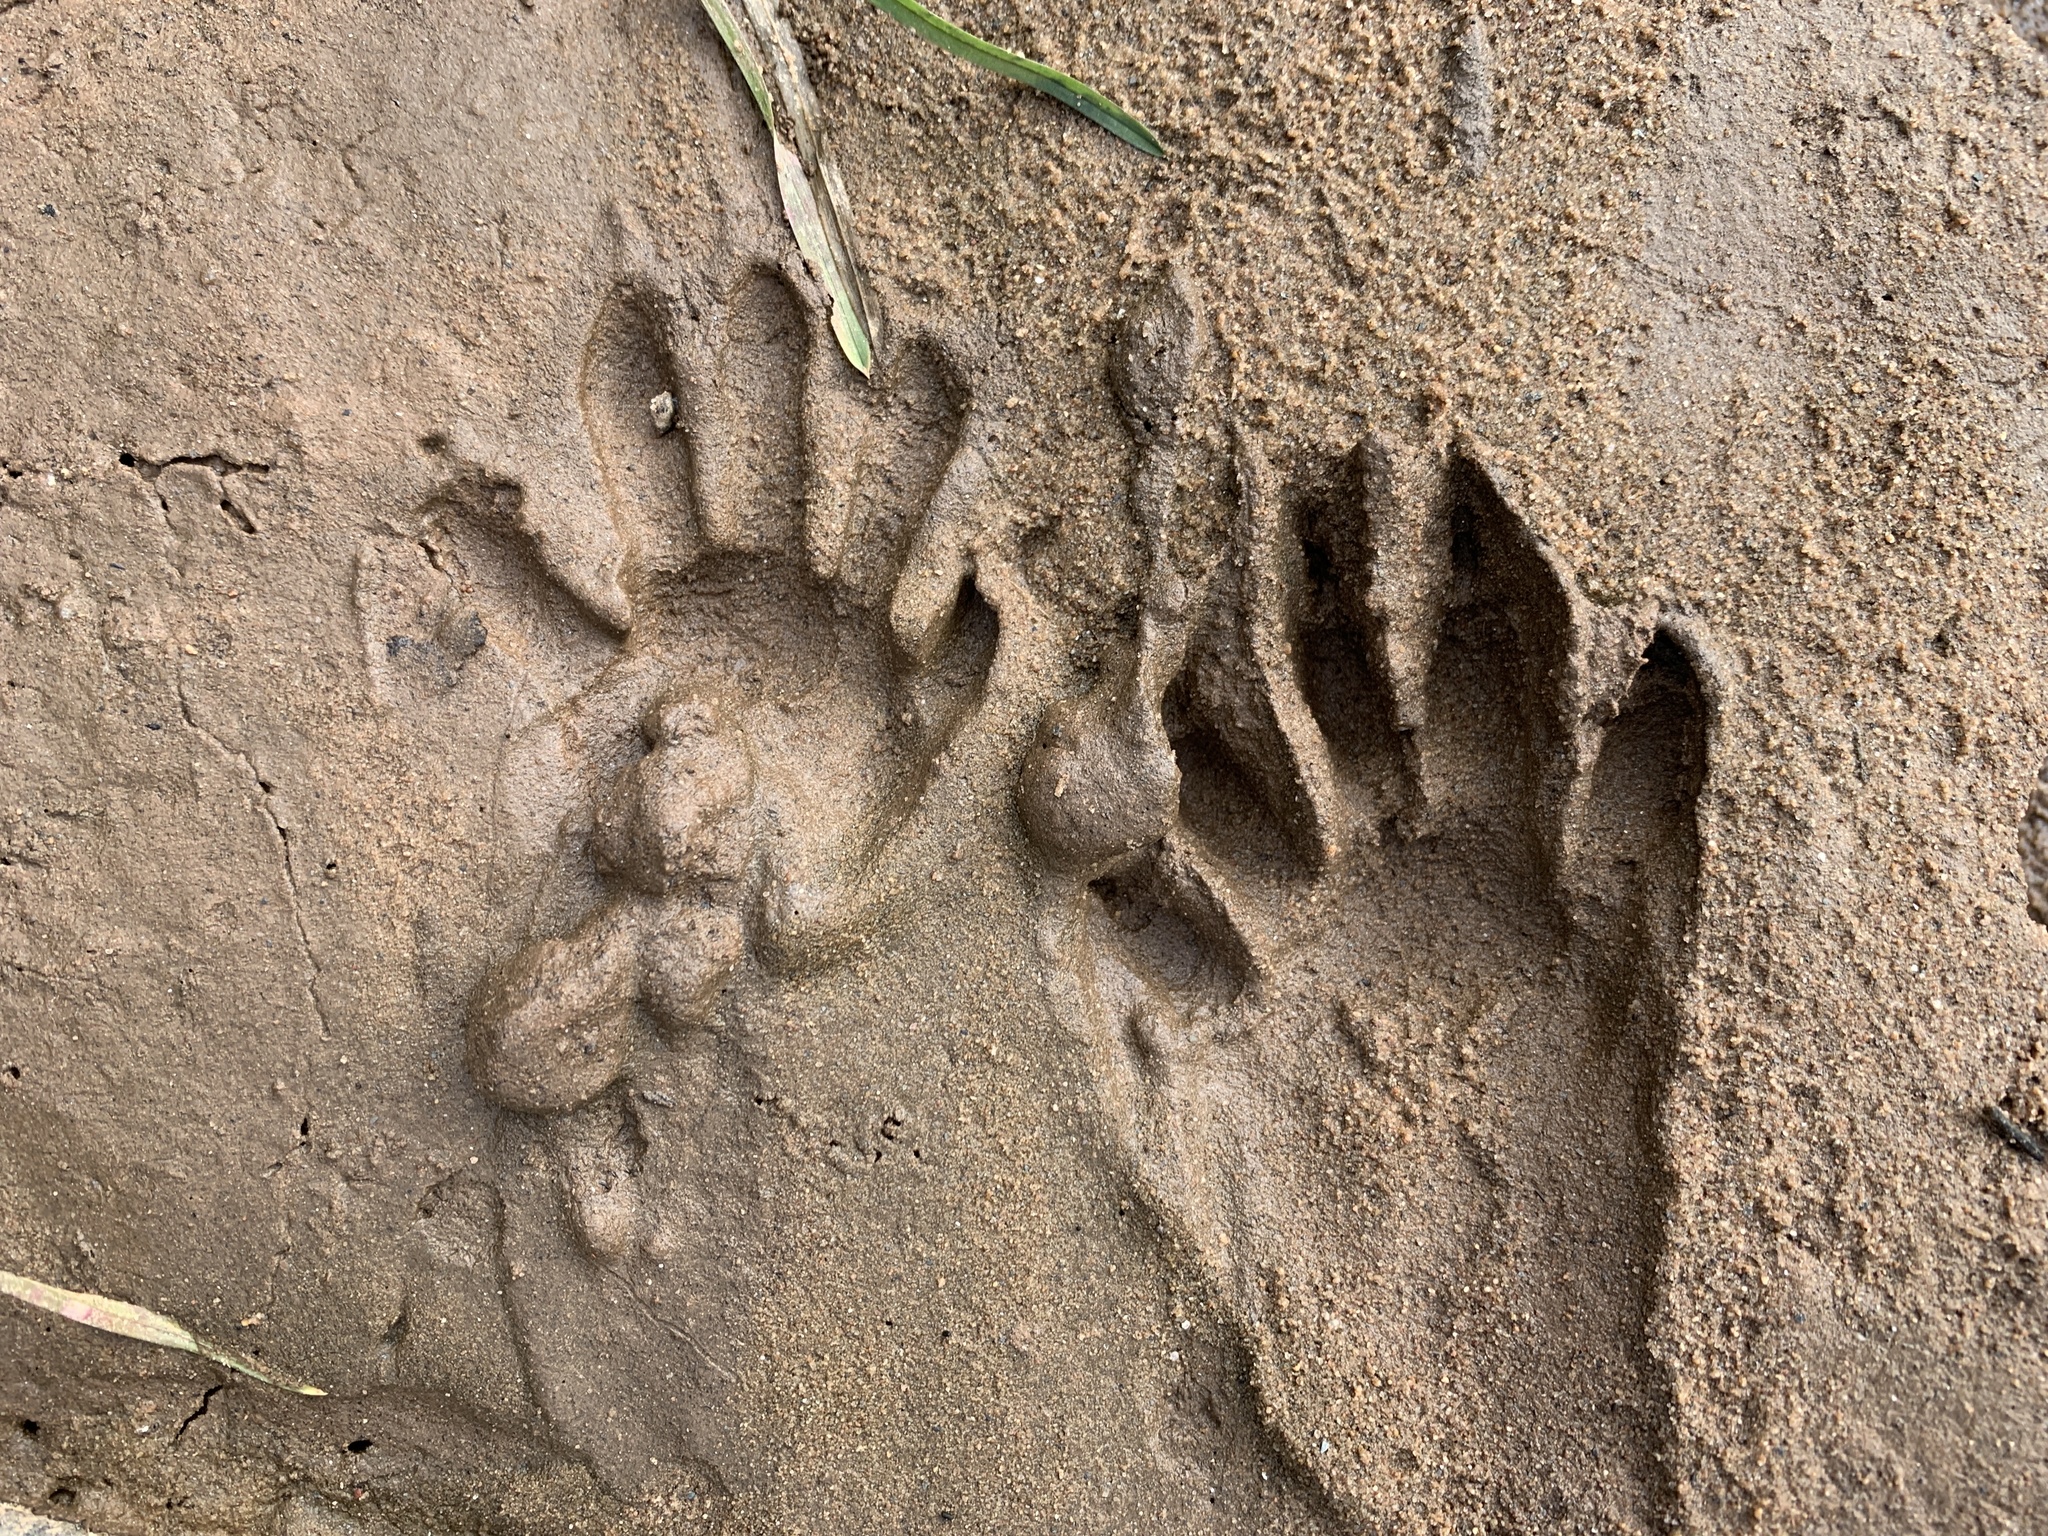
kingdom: Animalia
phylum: Chordata
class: Mammalia
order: Carnivora
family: Procyonidae
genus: Procyon
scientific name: Procyon lotor
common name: Raccoon
